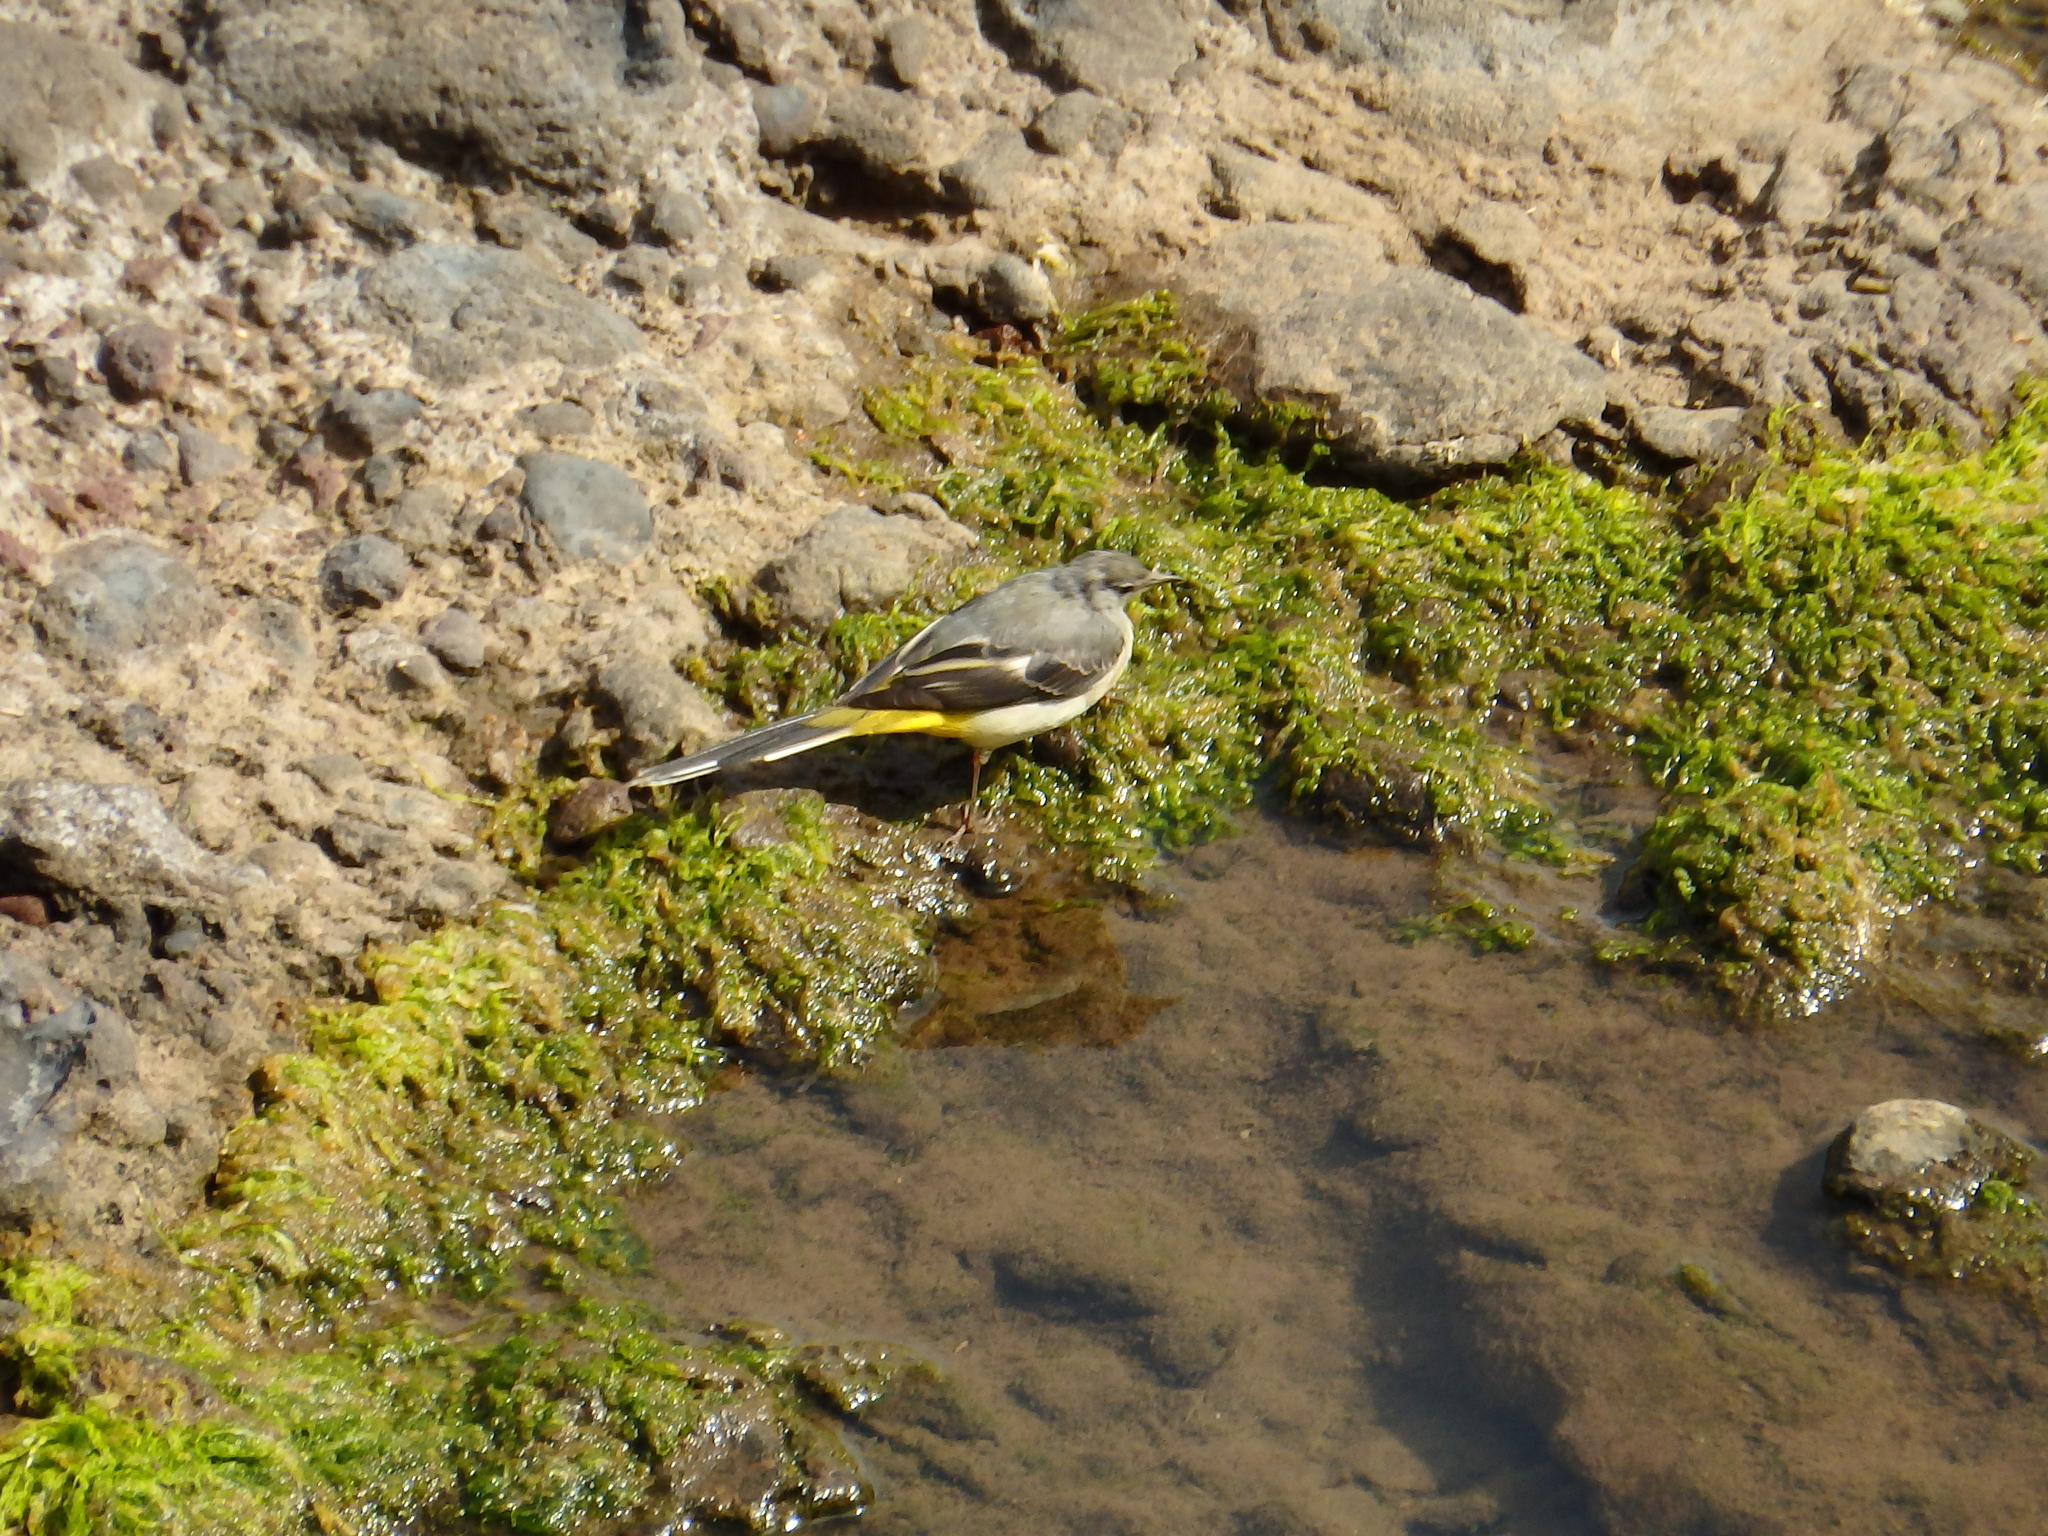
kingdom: Animalia
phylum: Chordata
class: Aves
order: Passeriformes
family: Motacillidae
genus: Motacilla
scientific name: Motacilla cinerea
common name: Grey wagtail
